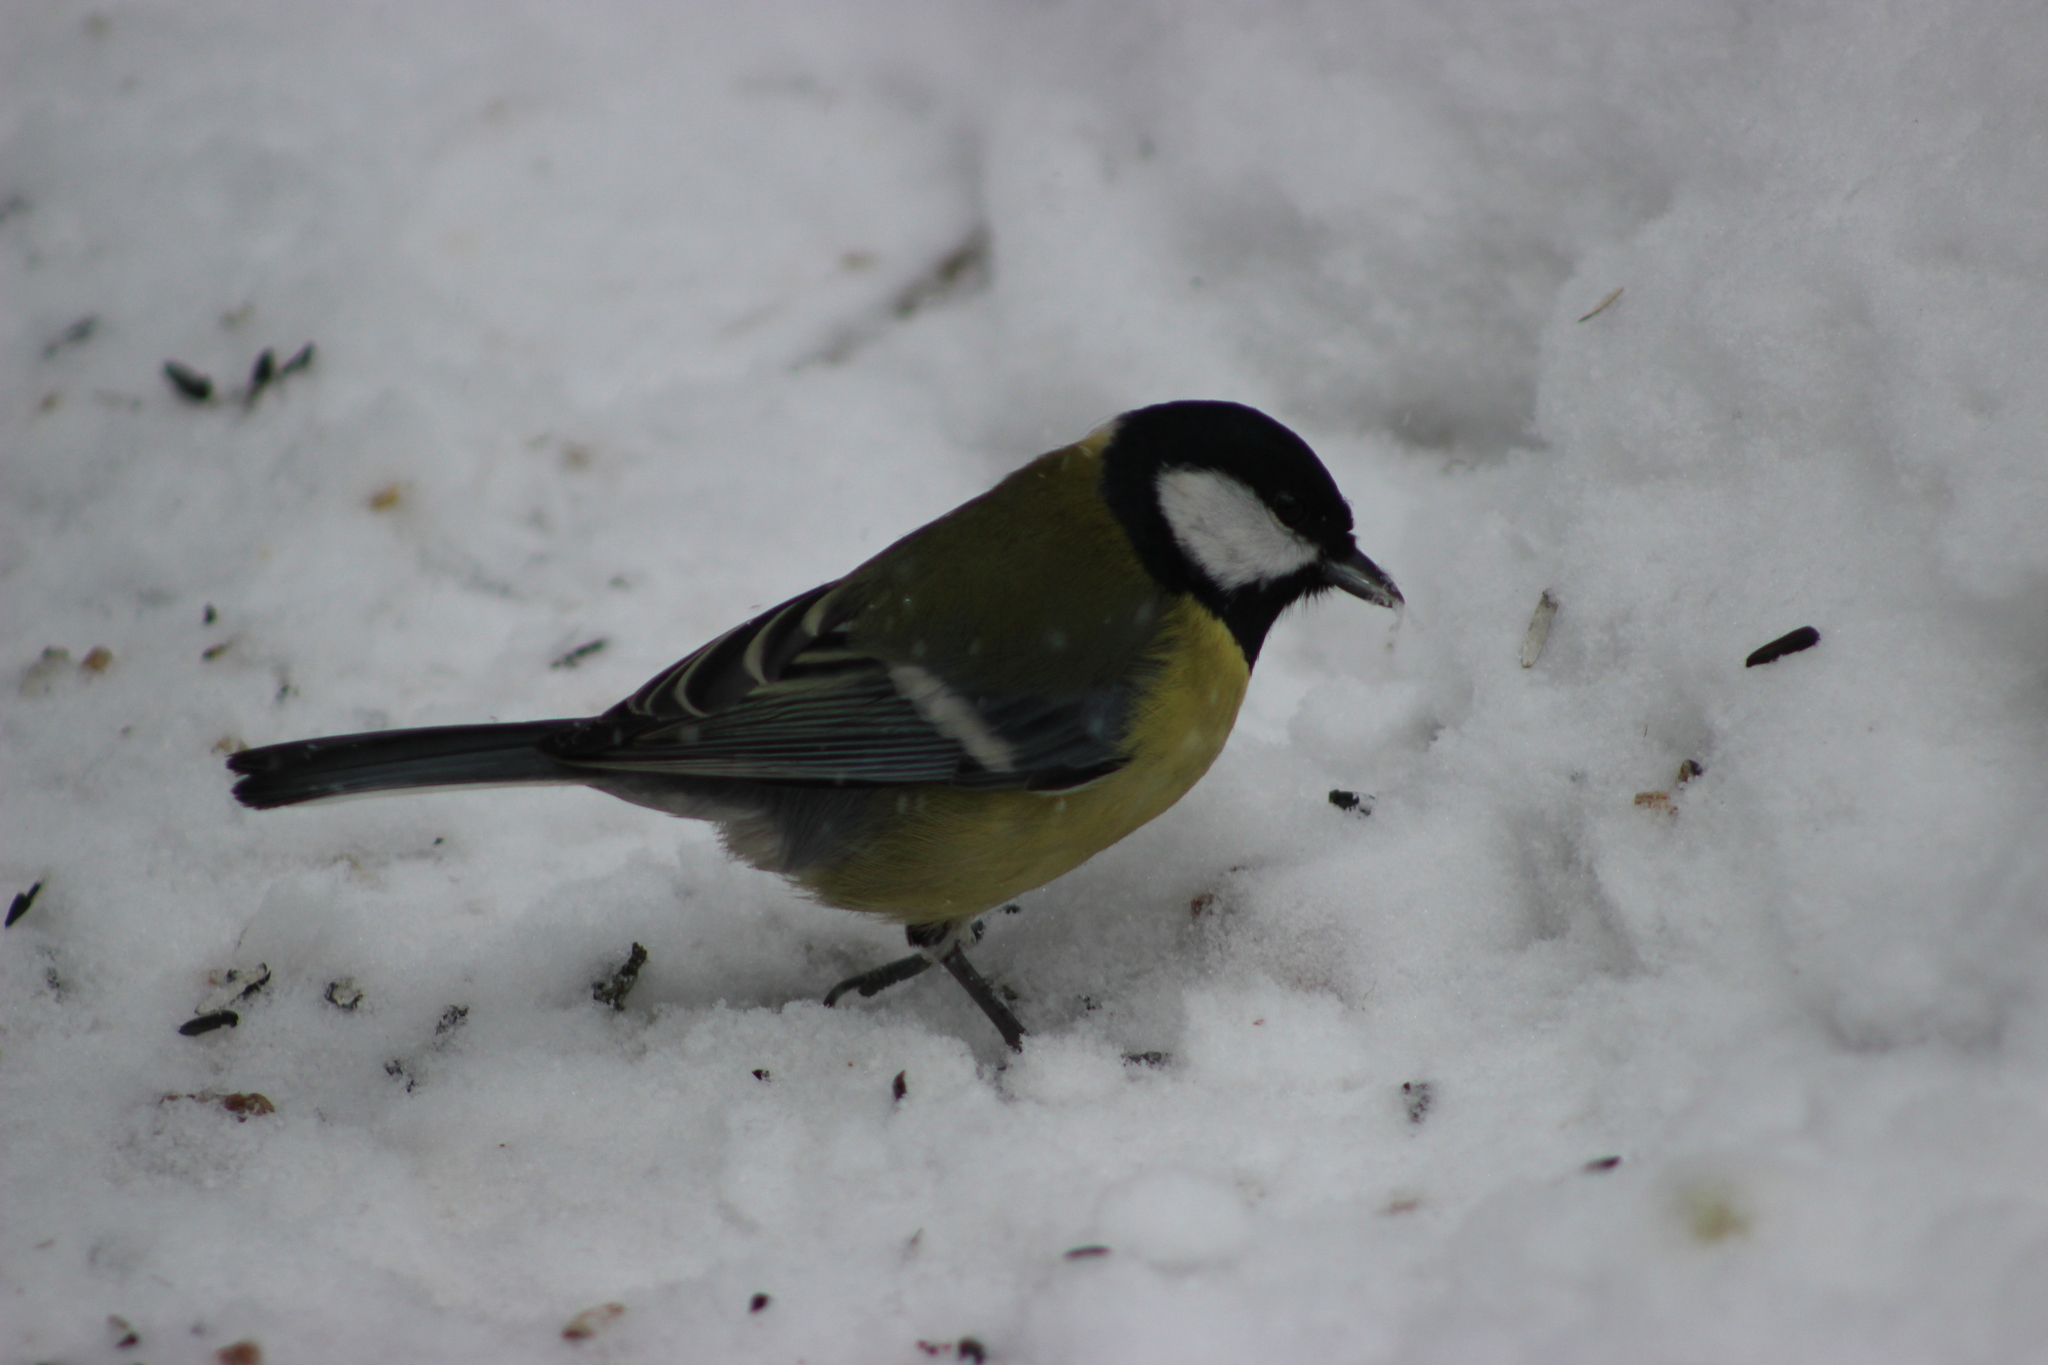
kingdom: Animalia
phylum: Chordata
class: Aves
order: Passeriformes
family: Paridae
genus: Parus
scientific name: Parus major
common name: Great tit
